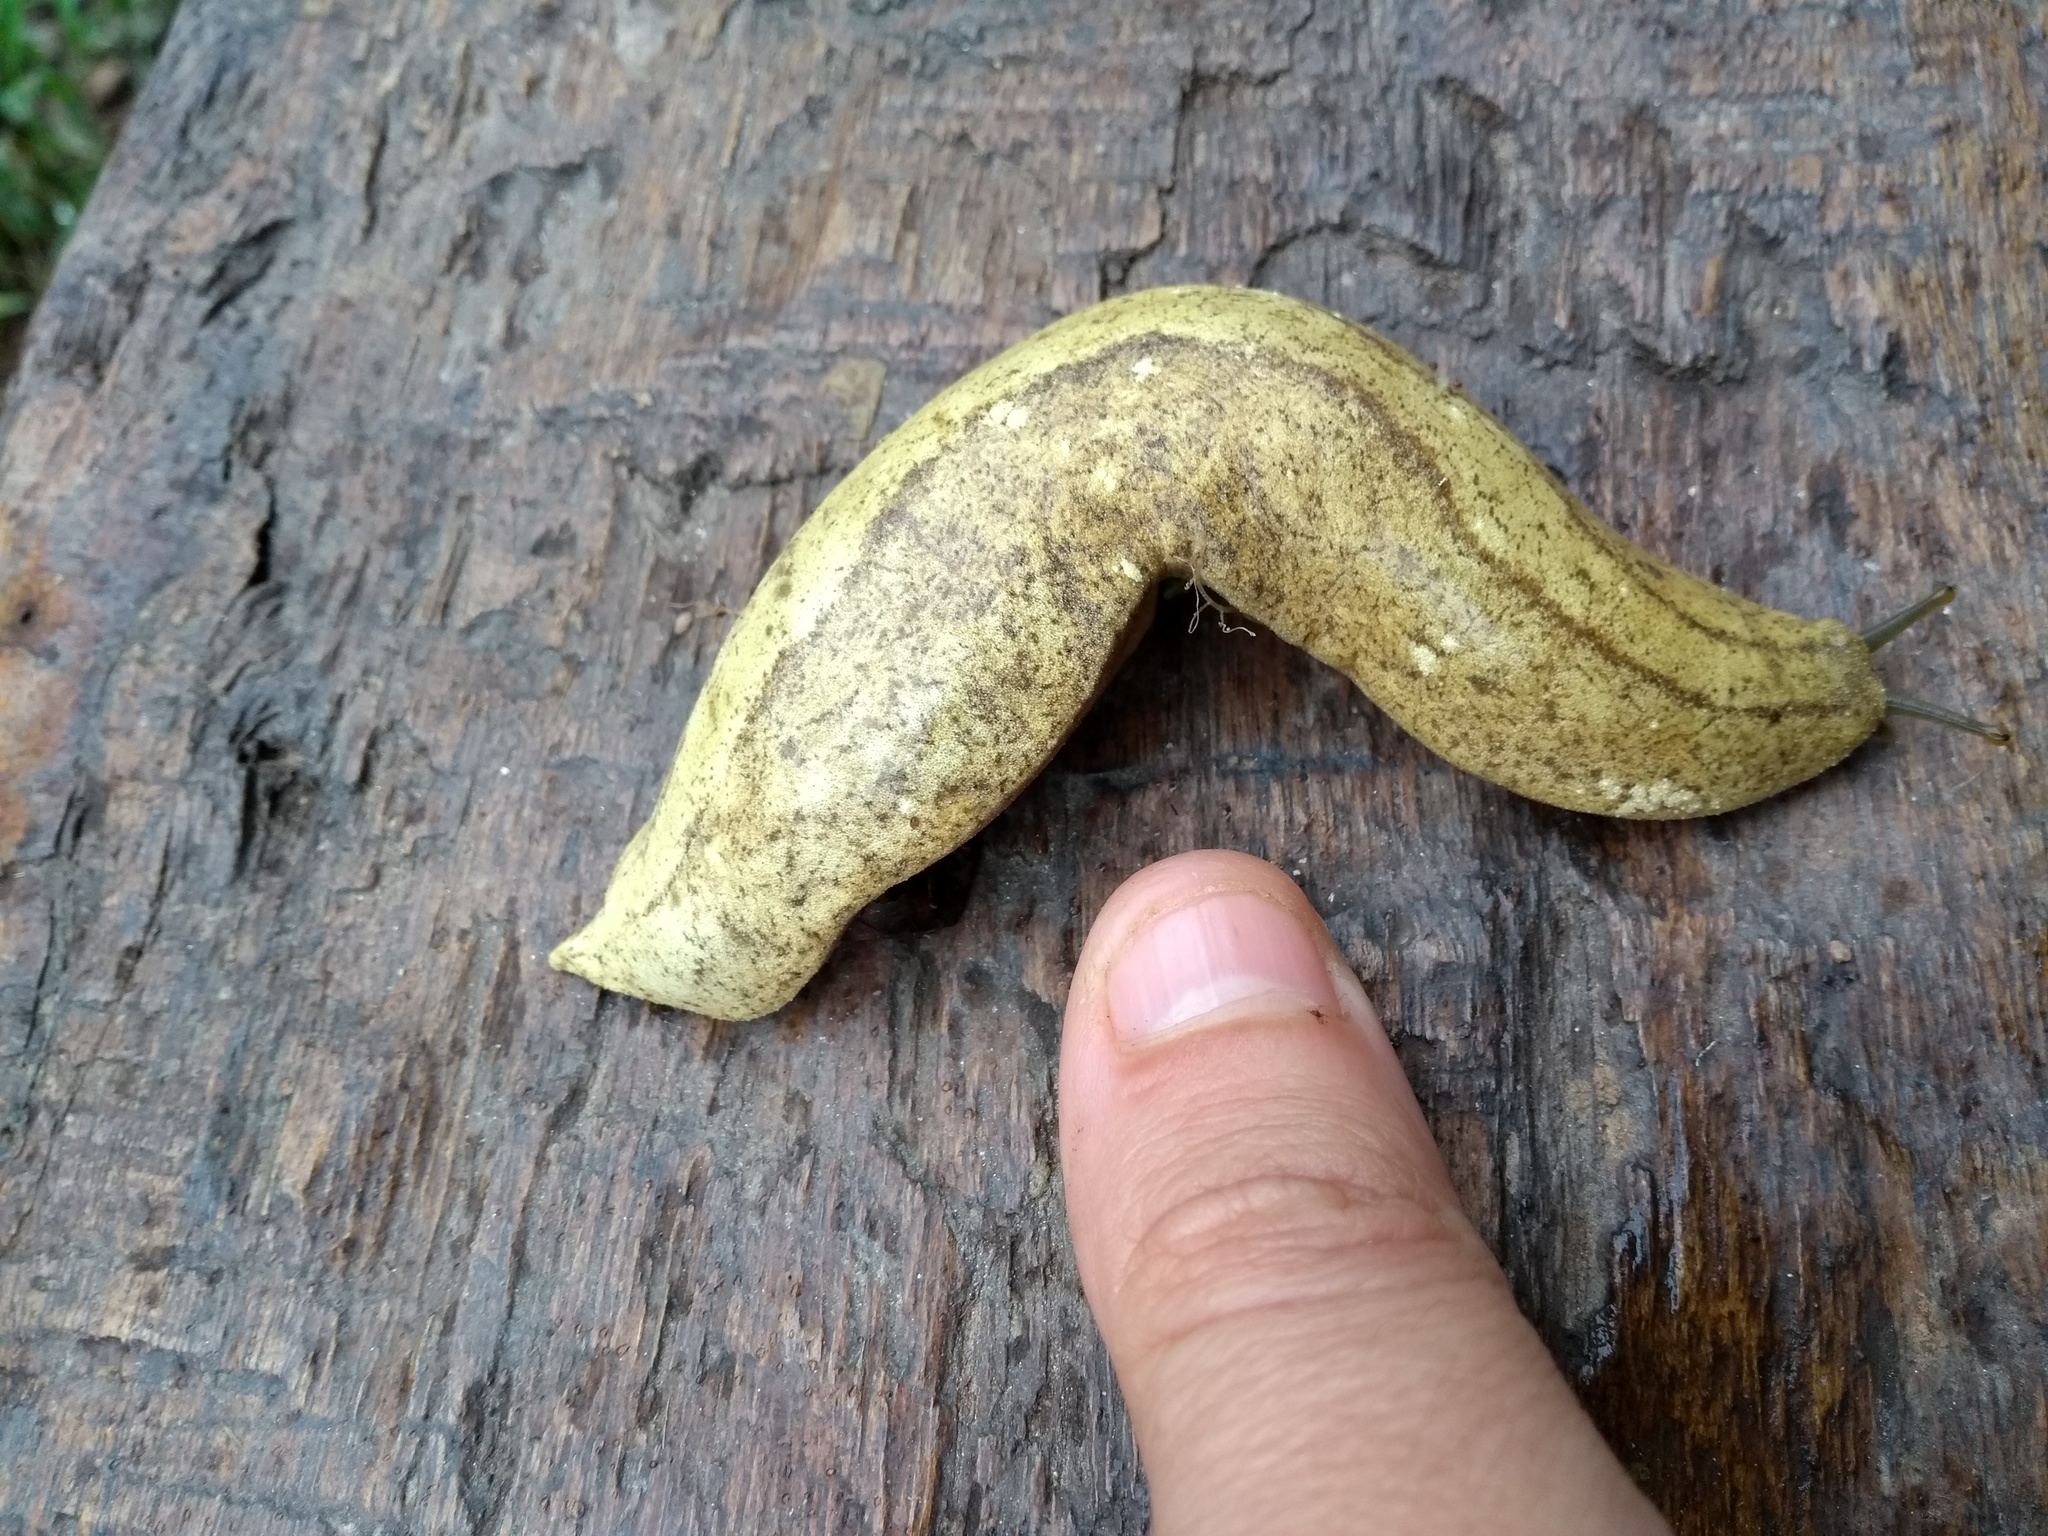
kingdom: Animalia
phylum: Mollusca
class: Gastropoda
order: Systellommatophora
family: Veronicellidae
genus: Vaginulus
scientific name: Vaginulus taunaisii
